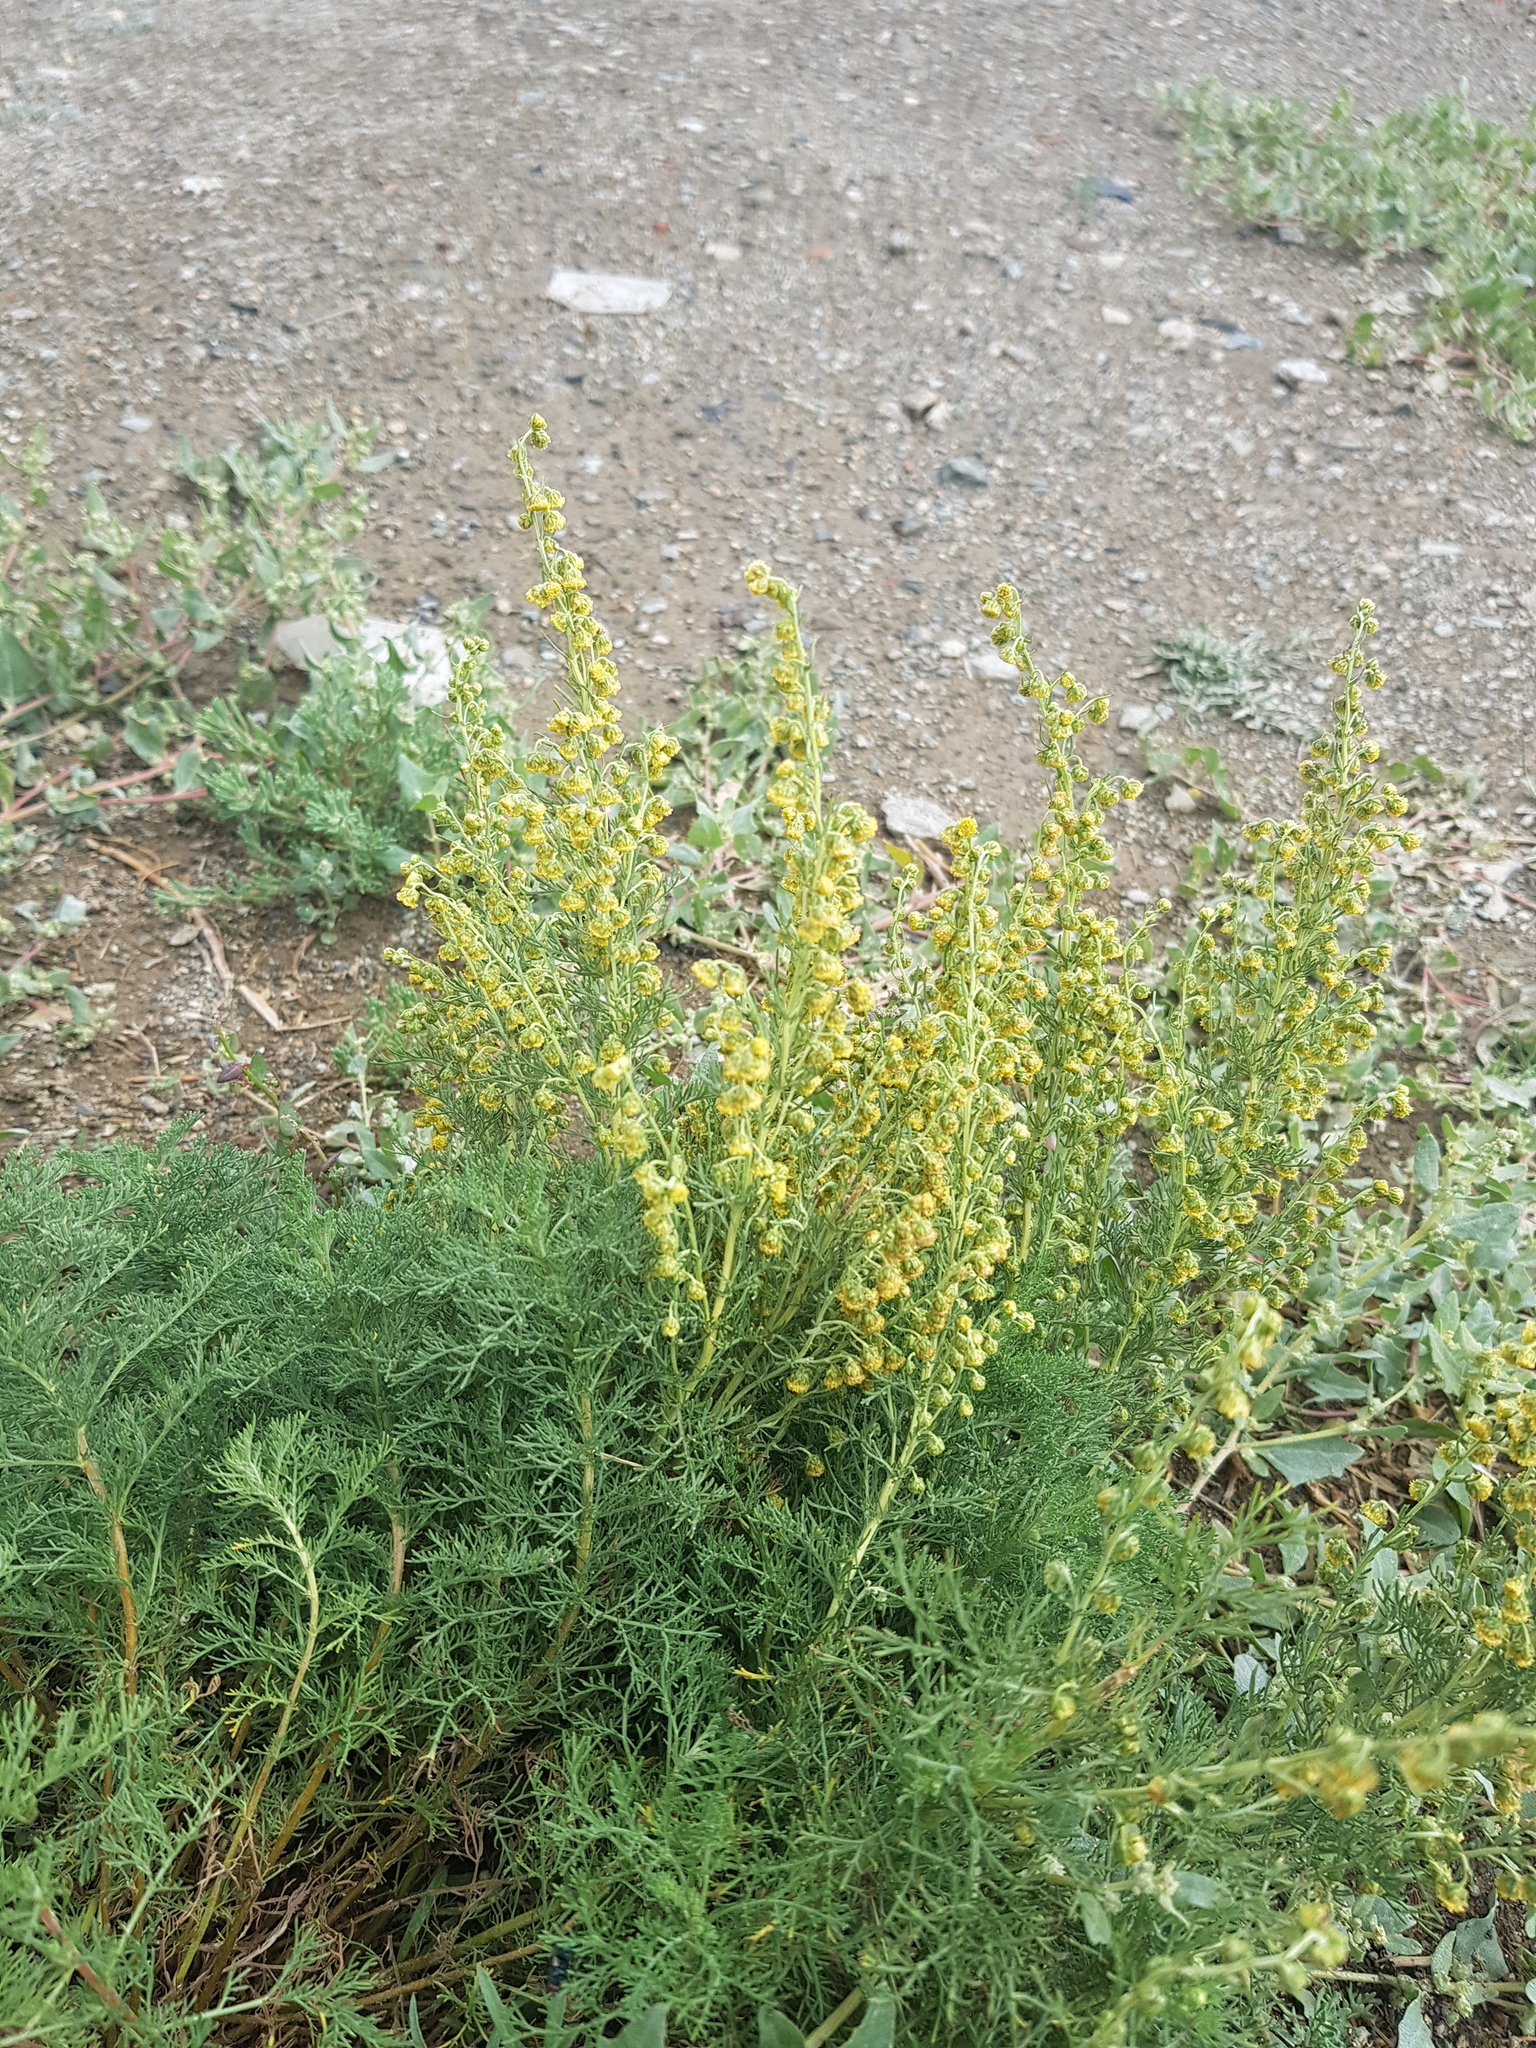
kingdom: Plantae
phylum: Tracheophyta
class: Magnoliopsida
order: Asterales
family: Asteraceae
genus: Artemisia
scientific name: Artemisia adamsii
